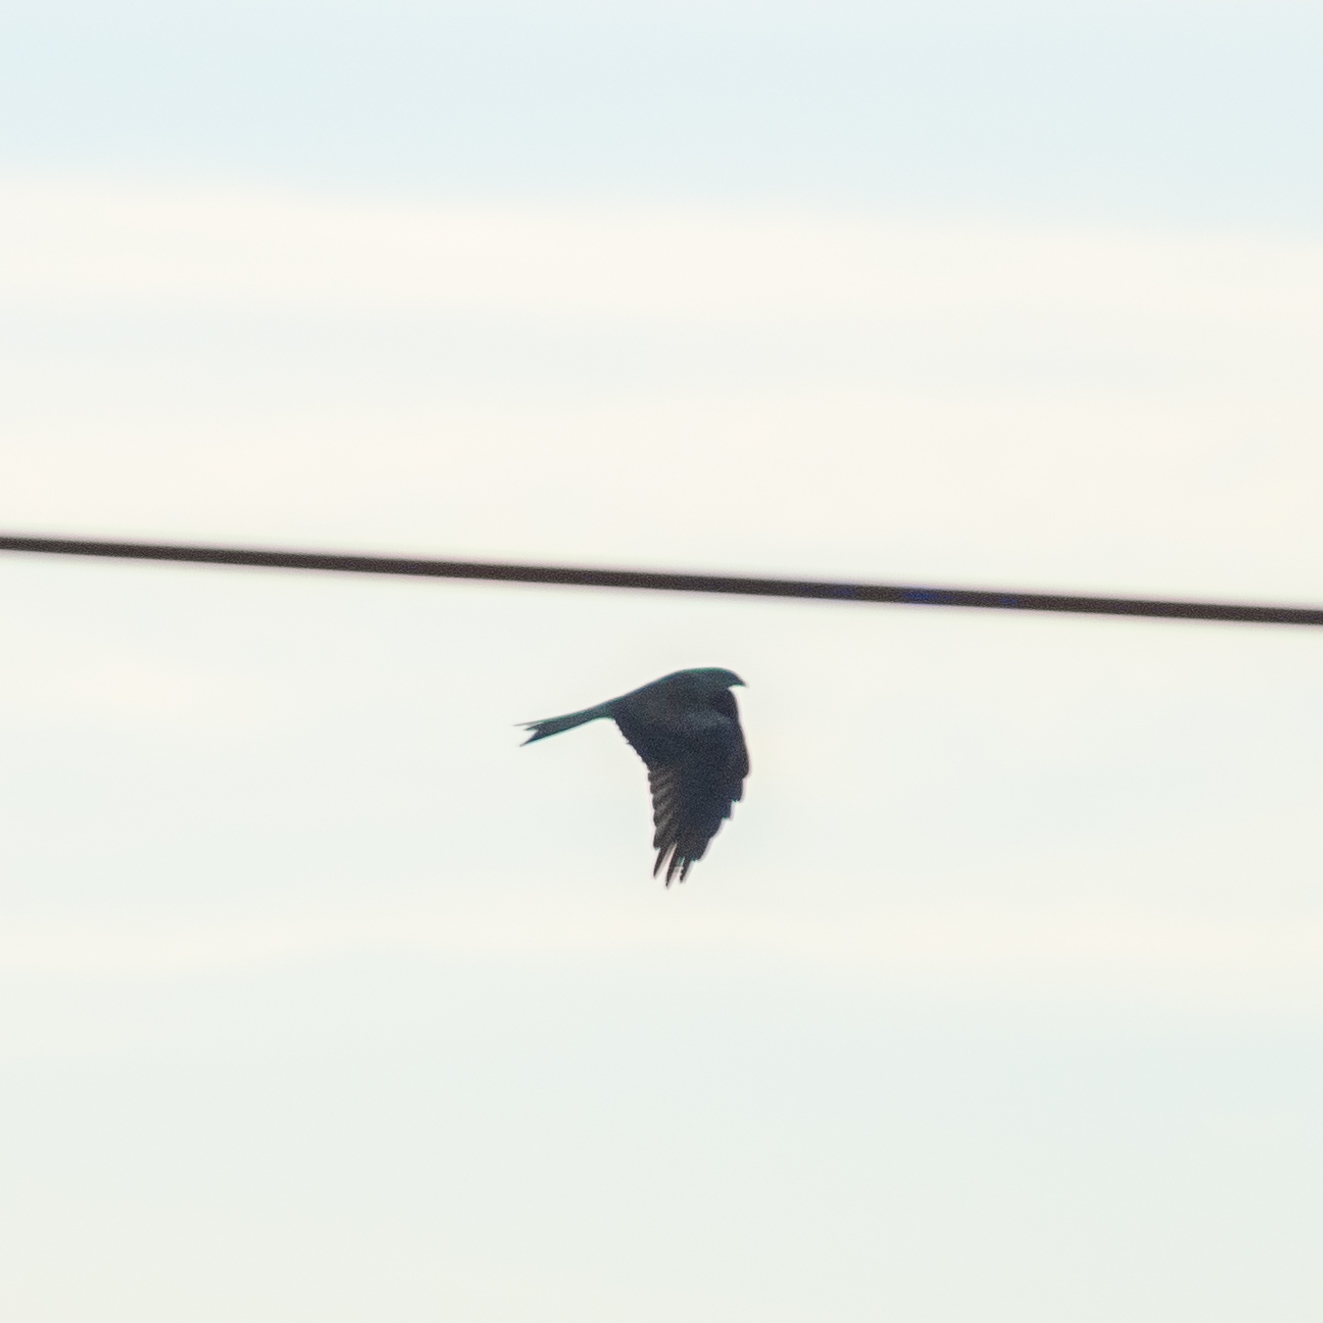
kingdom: Animalia
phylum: Chordata
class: Aves
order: Accipitriformes
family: Accipitridae
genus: Milvus
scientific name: Milvus milvus
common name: Red kite
